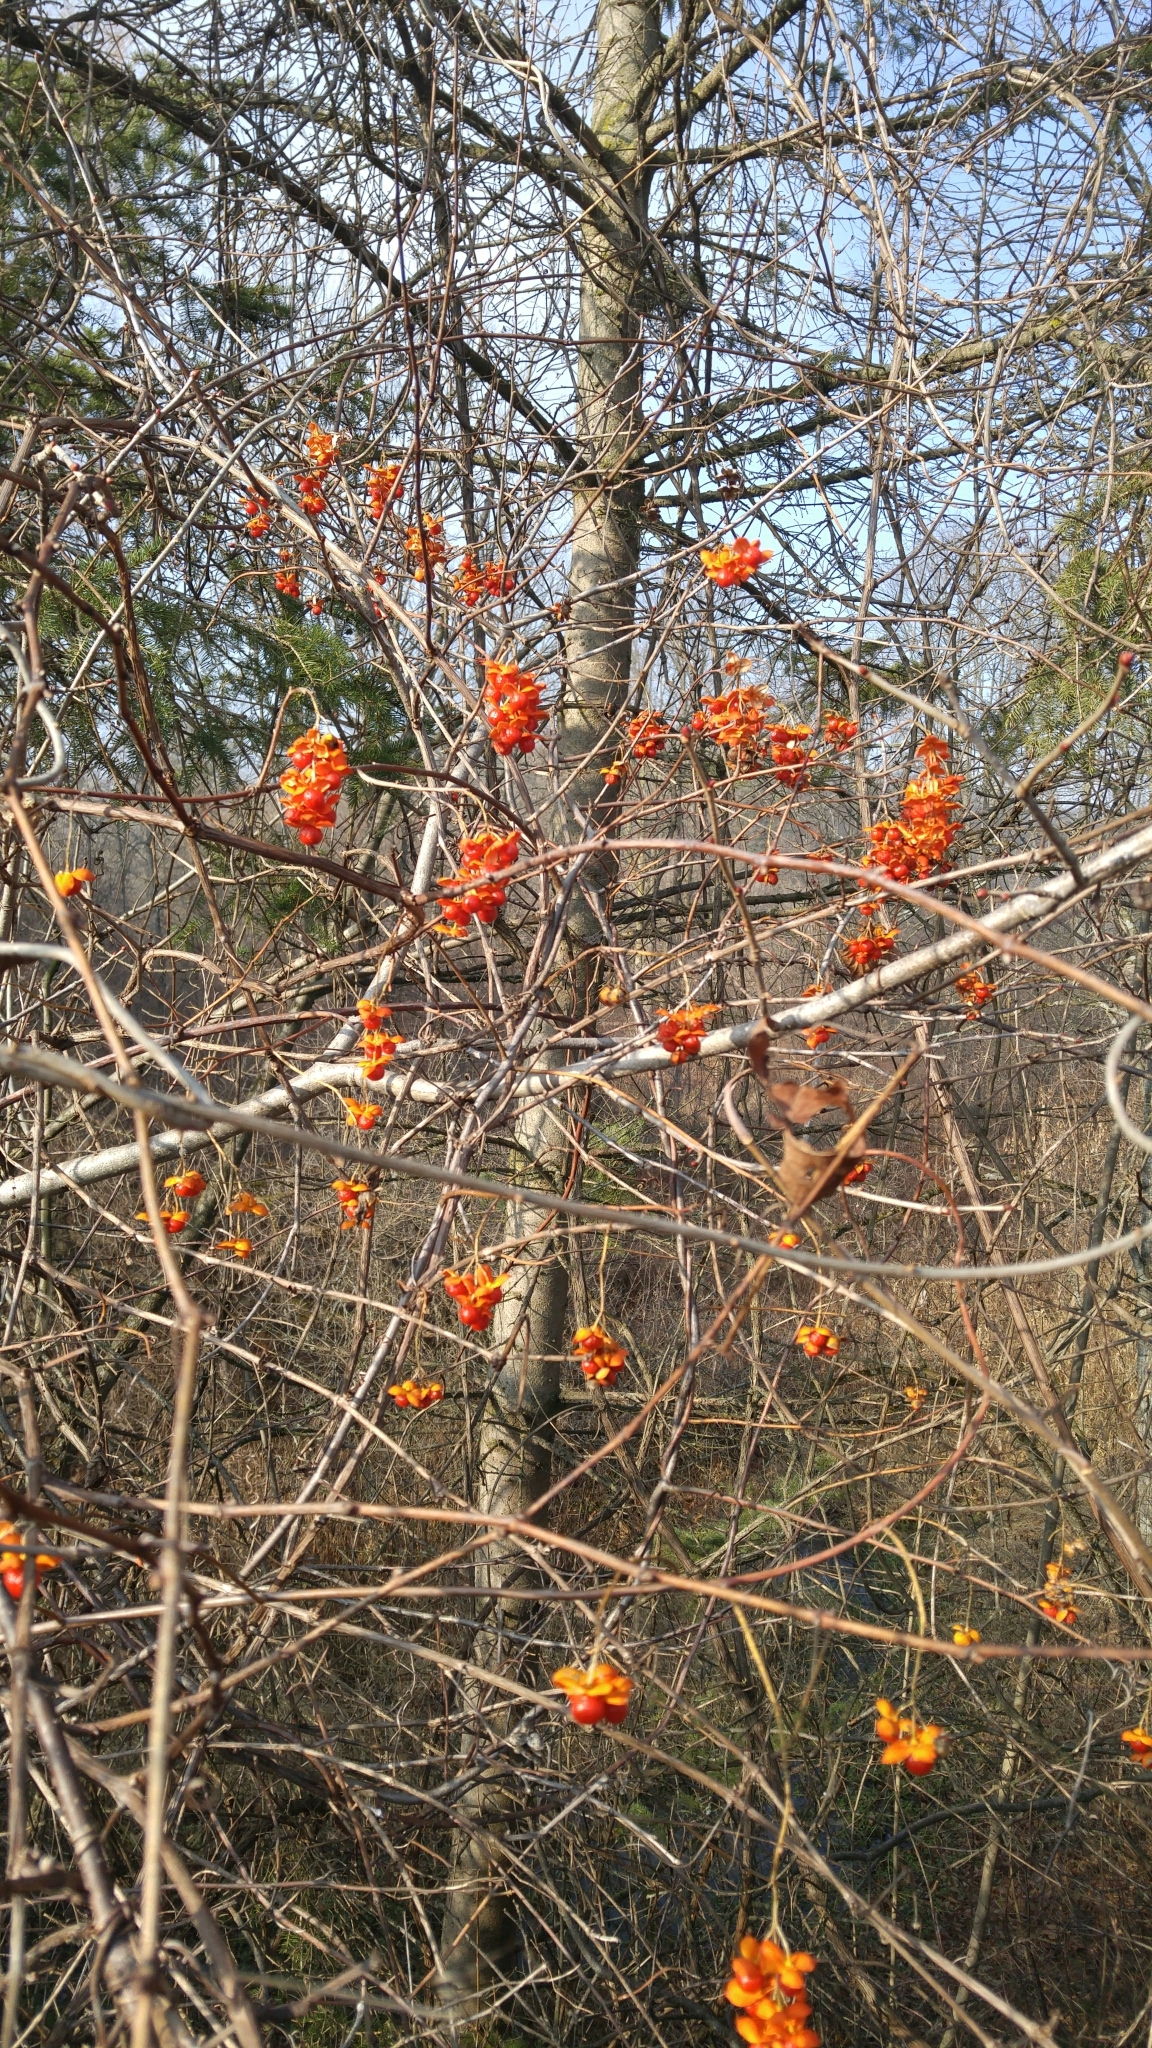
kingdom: Plantae
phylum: Tracheophyta
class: Magnoliopsida
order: Celastrales
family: Celastraceae
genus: Celastrus
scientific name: Celastrus scandens
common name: American bittersweet
